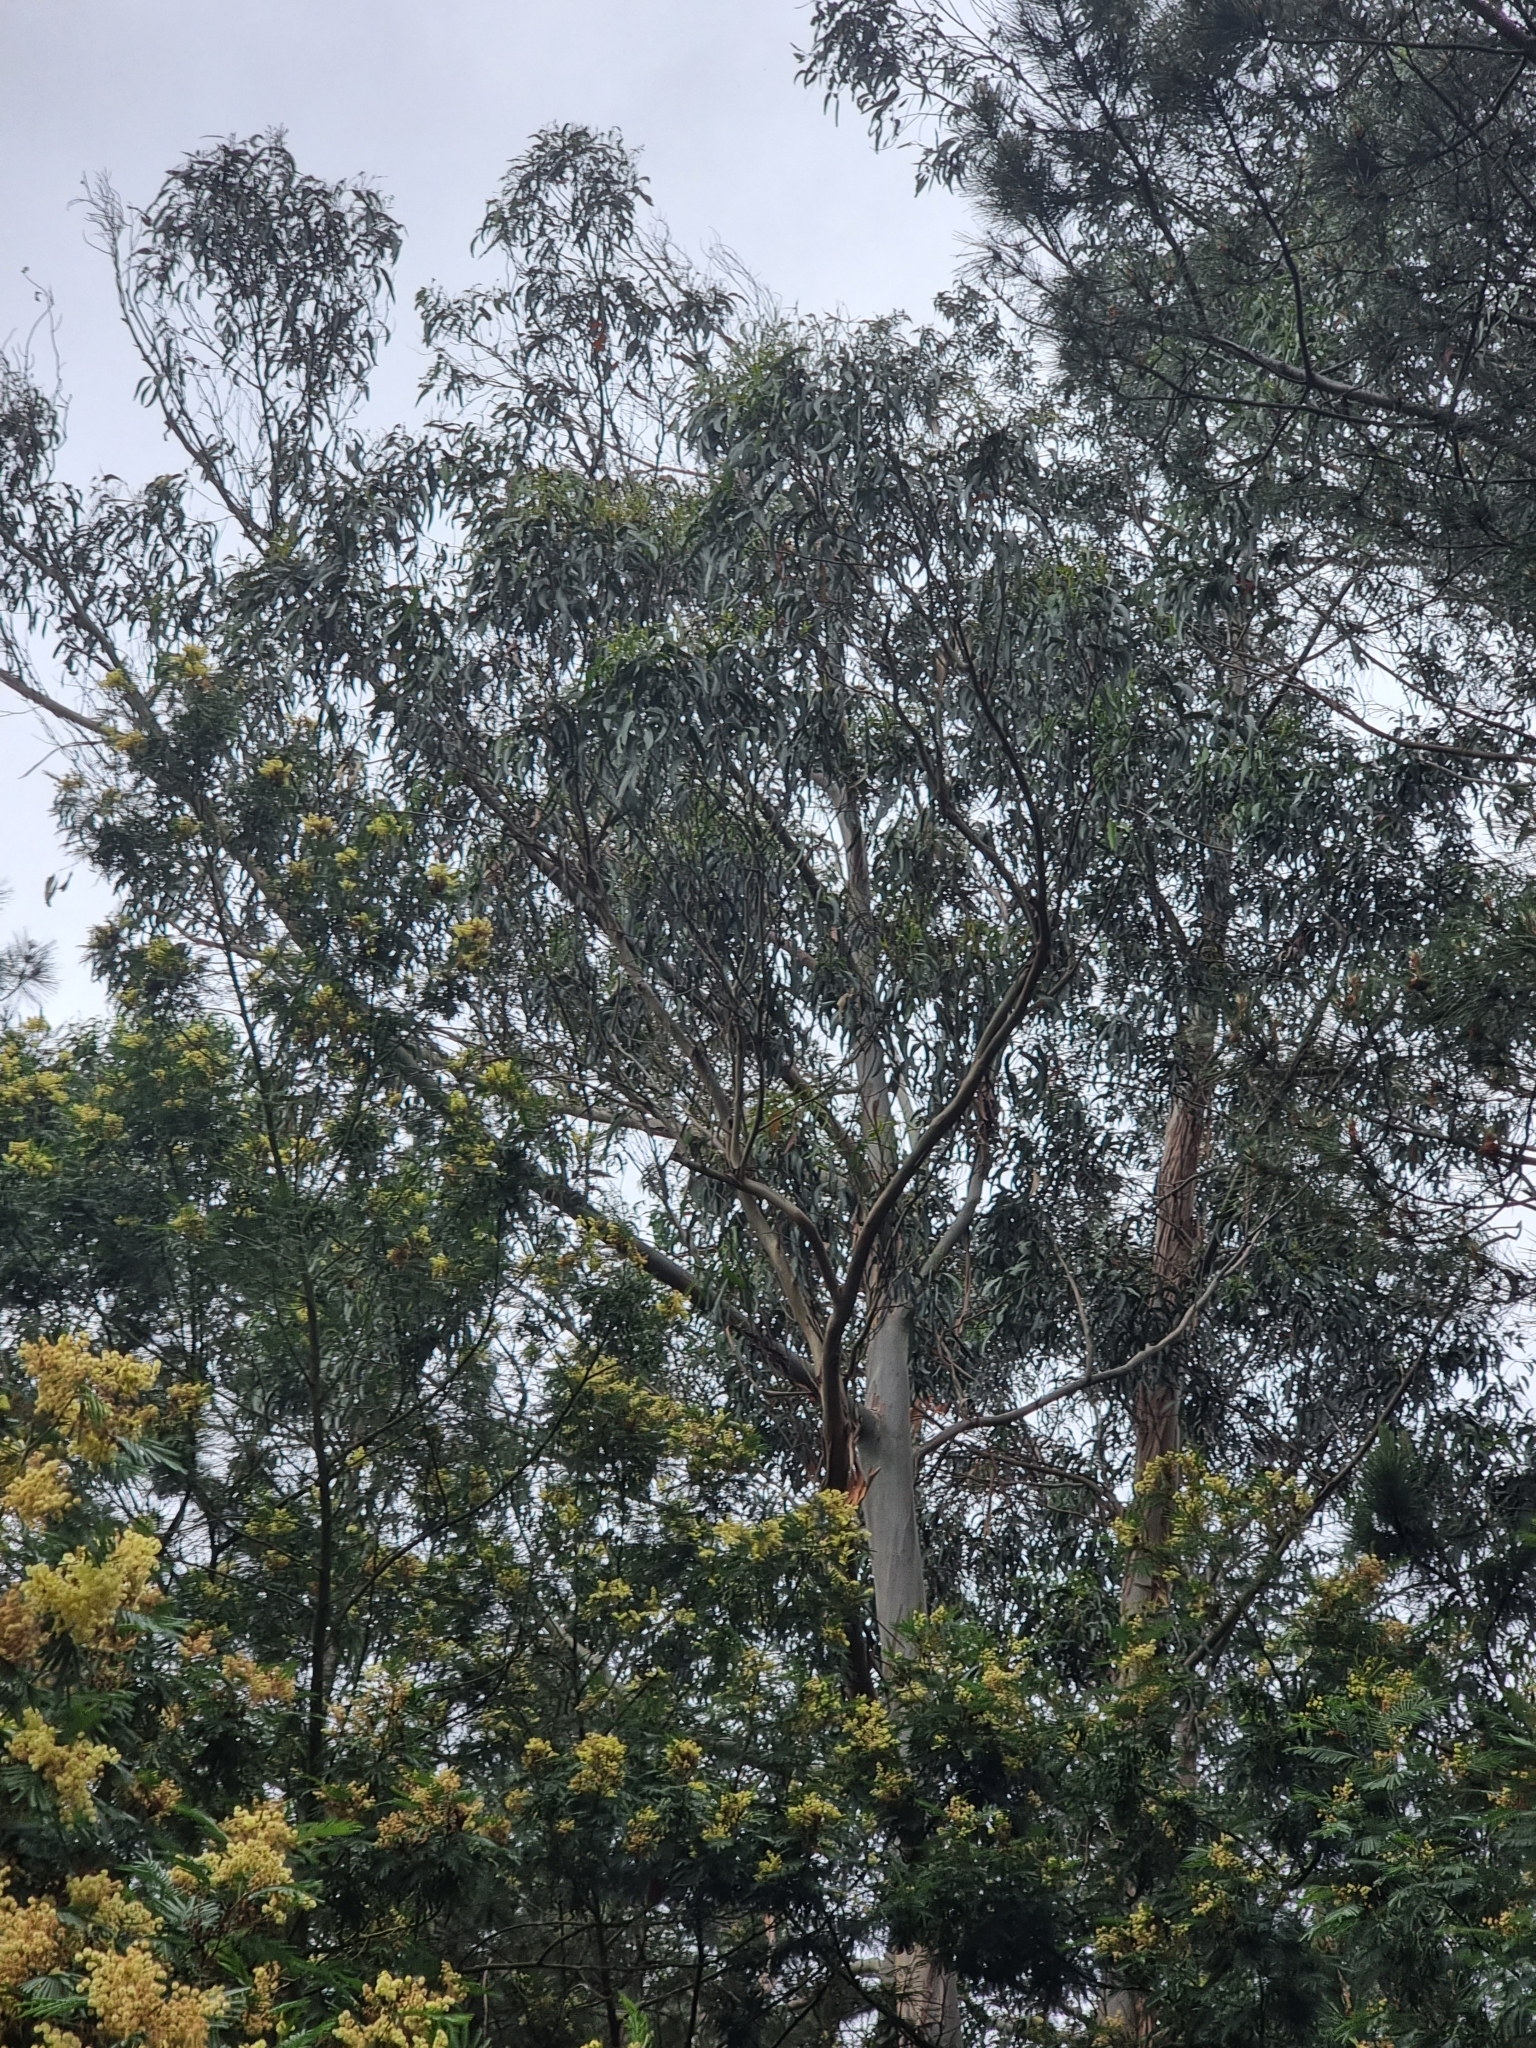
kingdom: Plantae
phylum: Tracheophyta
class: Magnoliopsida
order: Myrtales
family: Myrtaceae
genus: Eucalyptus
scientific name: Eucalyptus globulus
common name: Southern blue-gum
